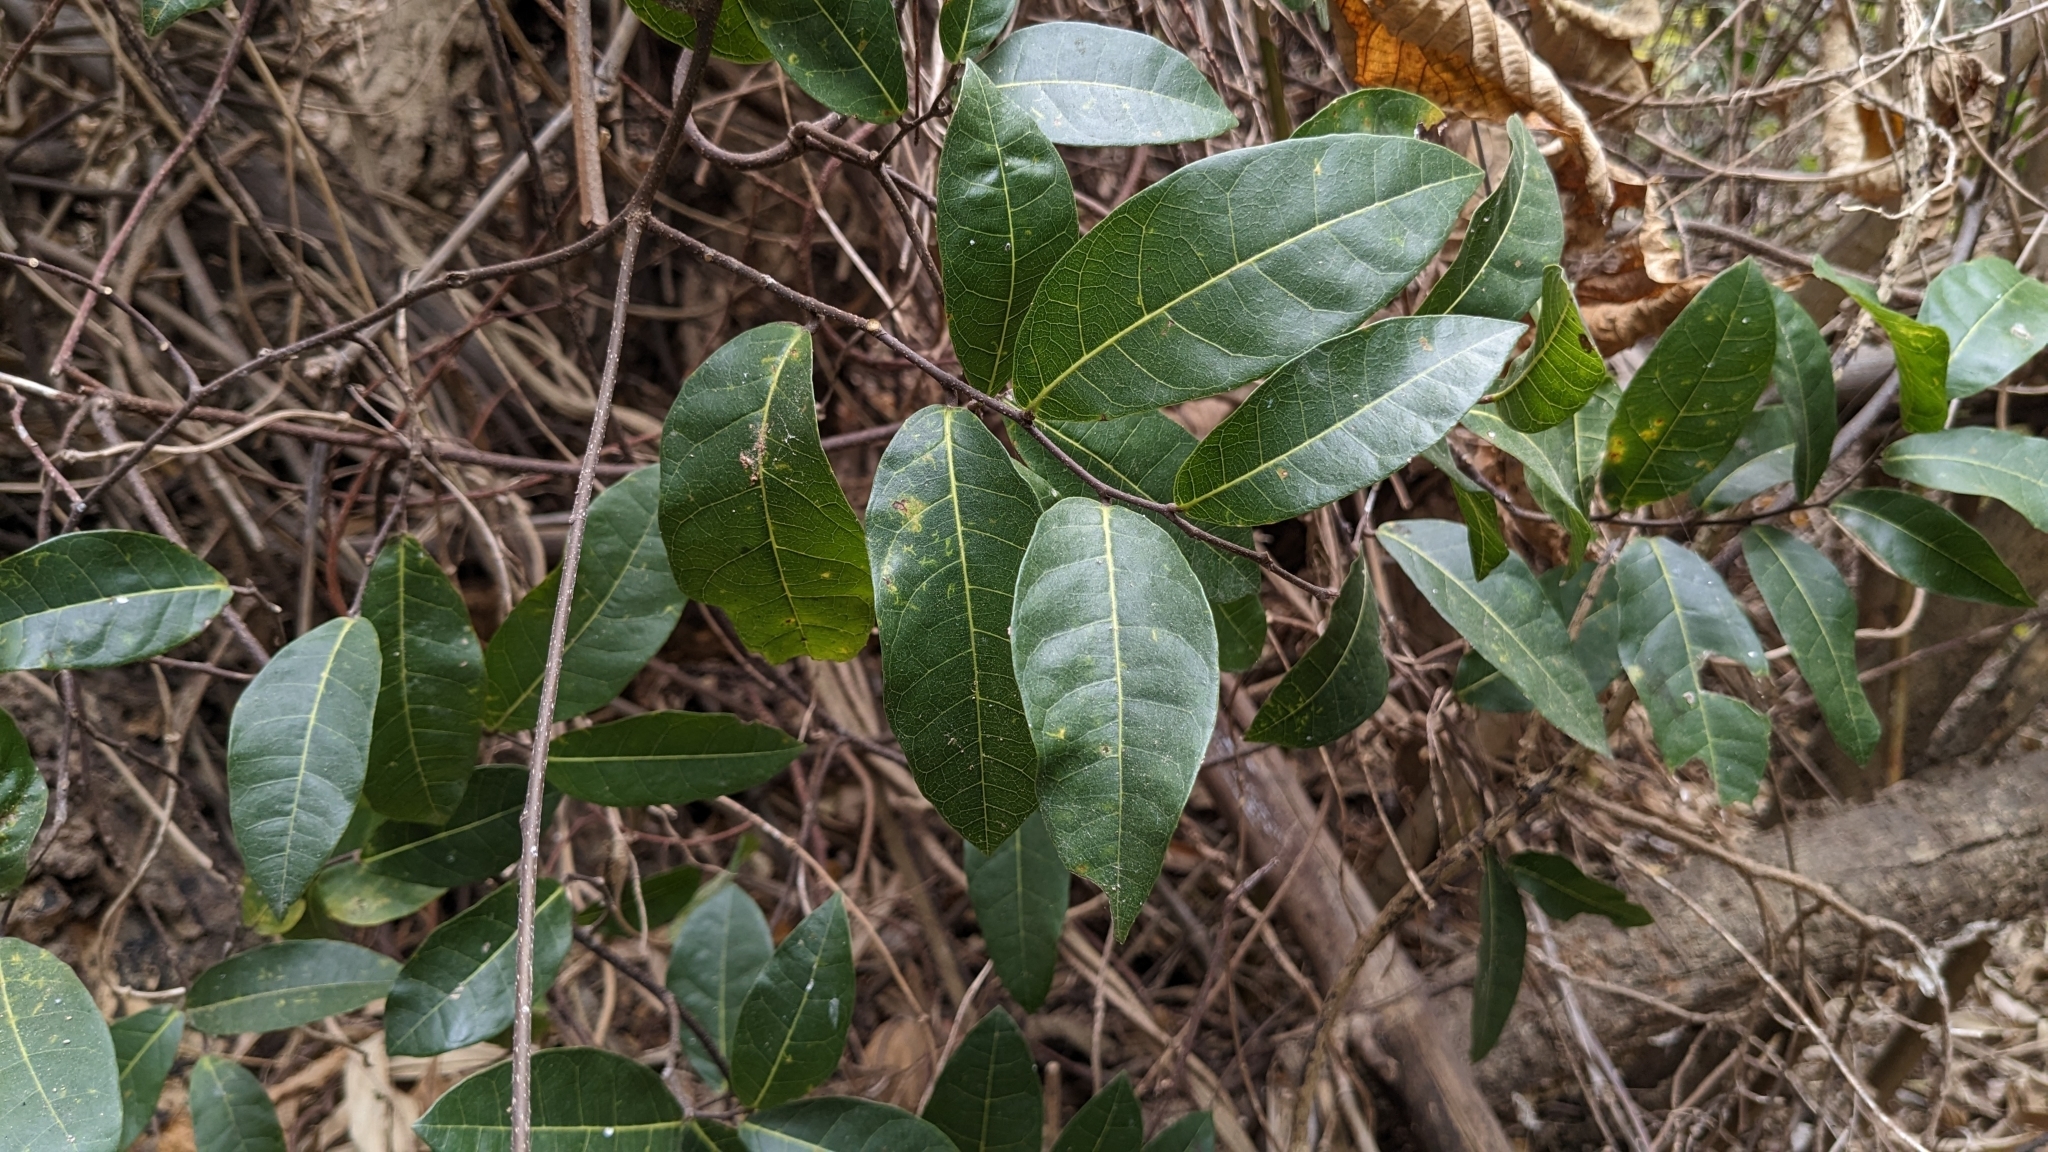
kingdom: Plantae
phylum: Tracheophyta
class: Magnoliopsida
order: Rosales
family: Moraceae
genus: Malaisia
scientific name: Malaisia scandens
